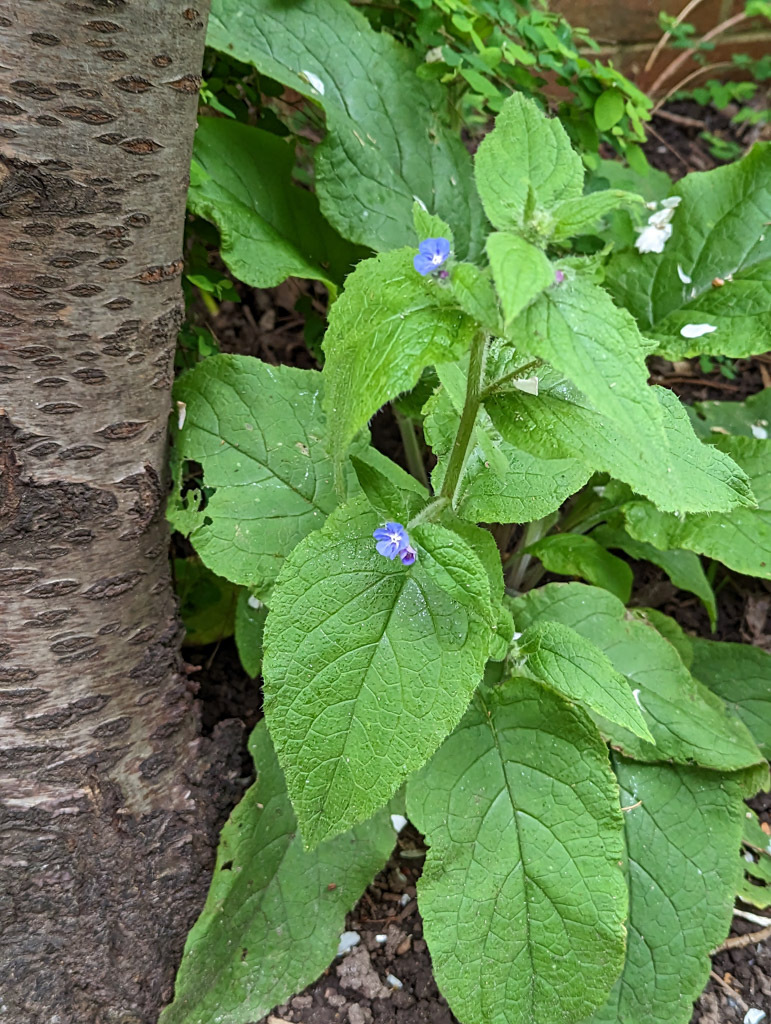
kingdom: Plantae
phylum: Tracheophyta
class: Magnoliopsida
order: Boraginales
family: Boraginaceae
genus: Pentaglottis
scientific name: Pentaglottis sempervirens
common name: Green alkanet
